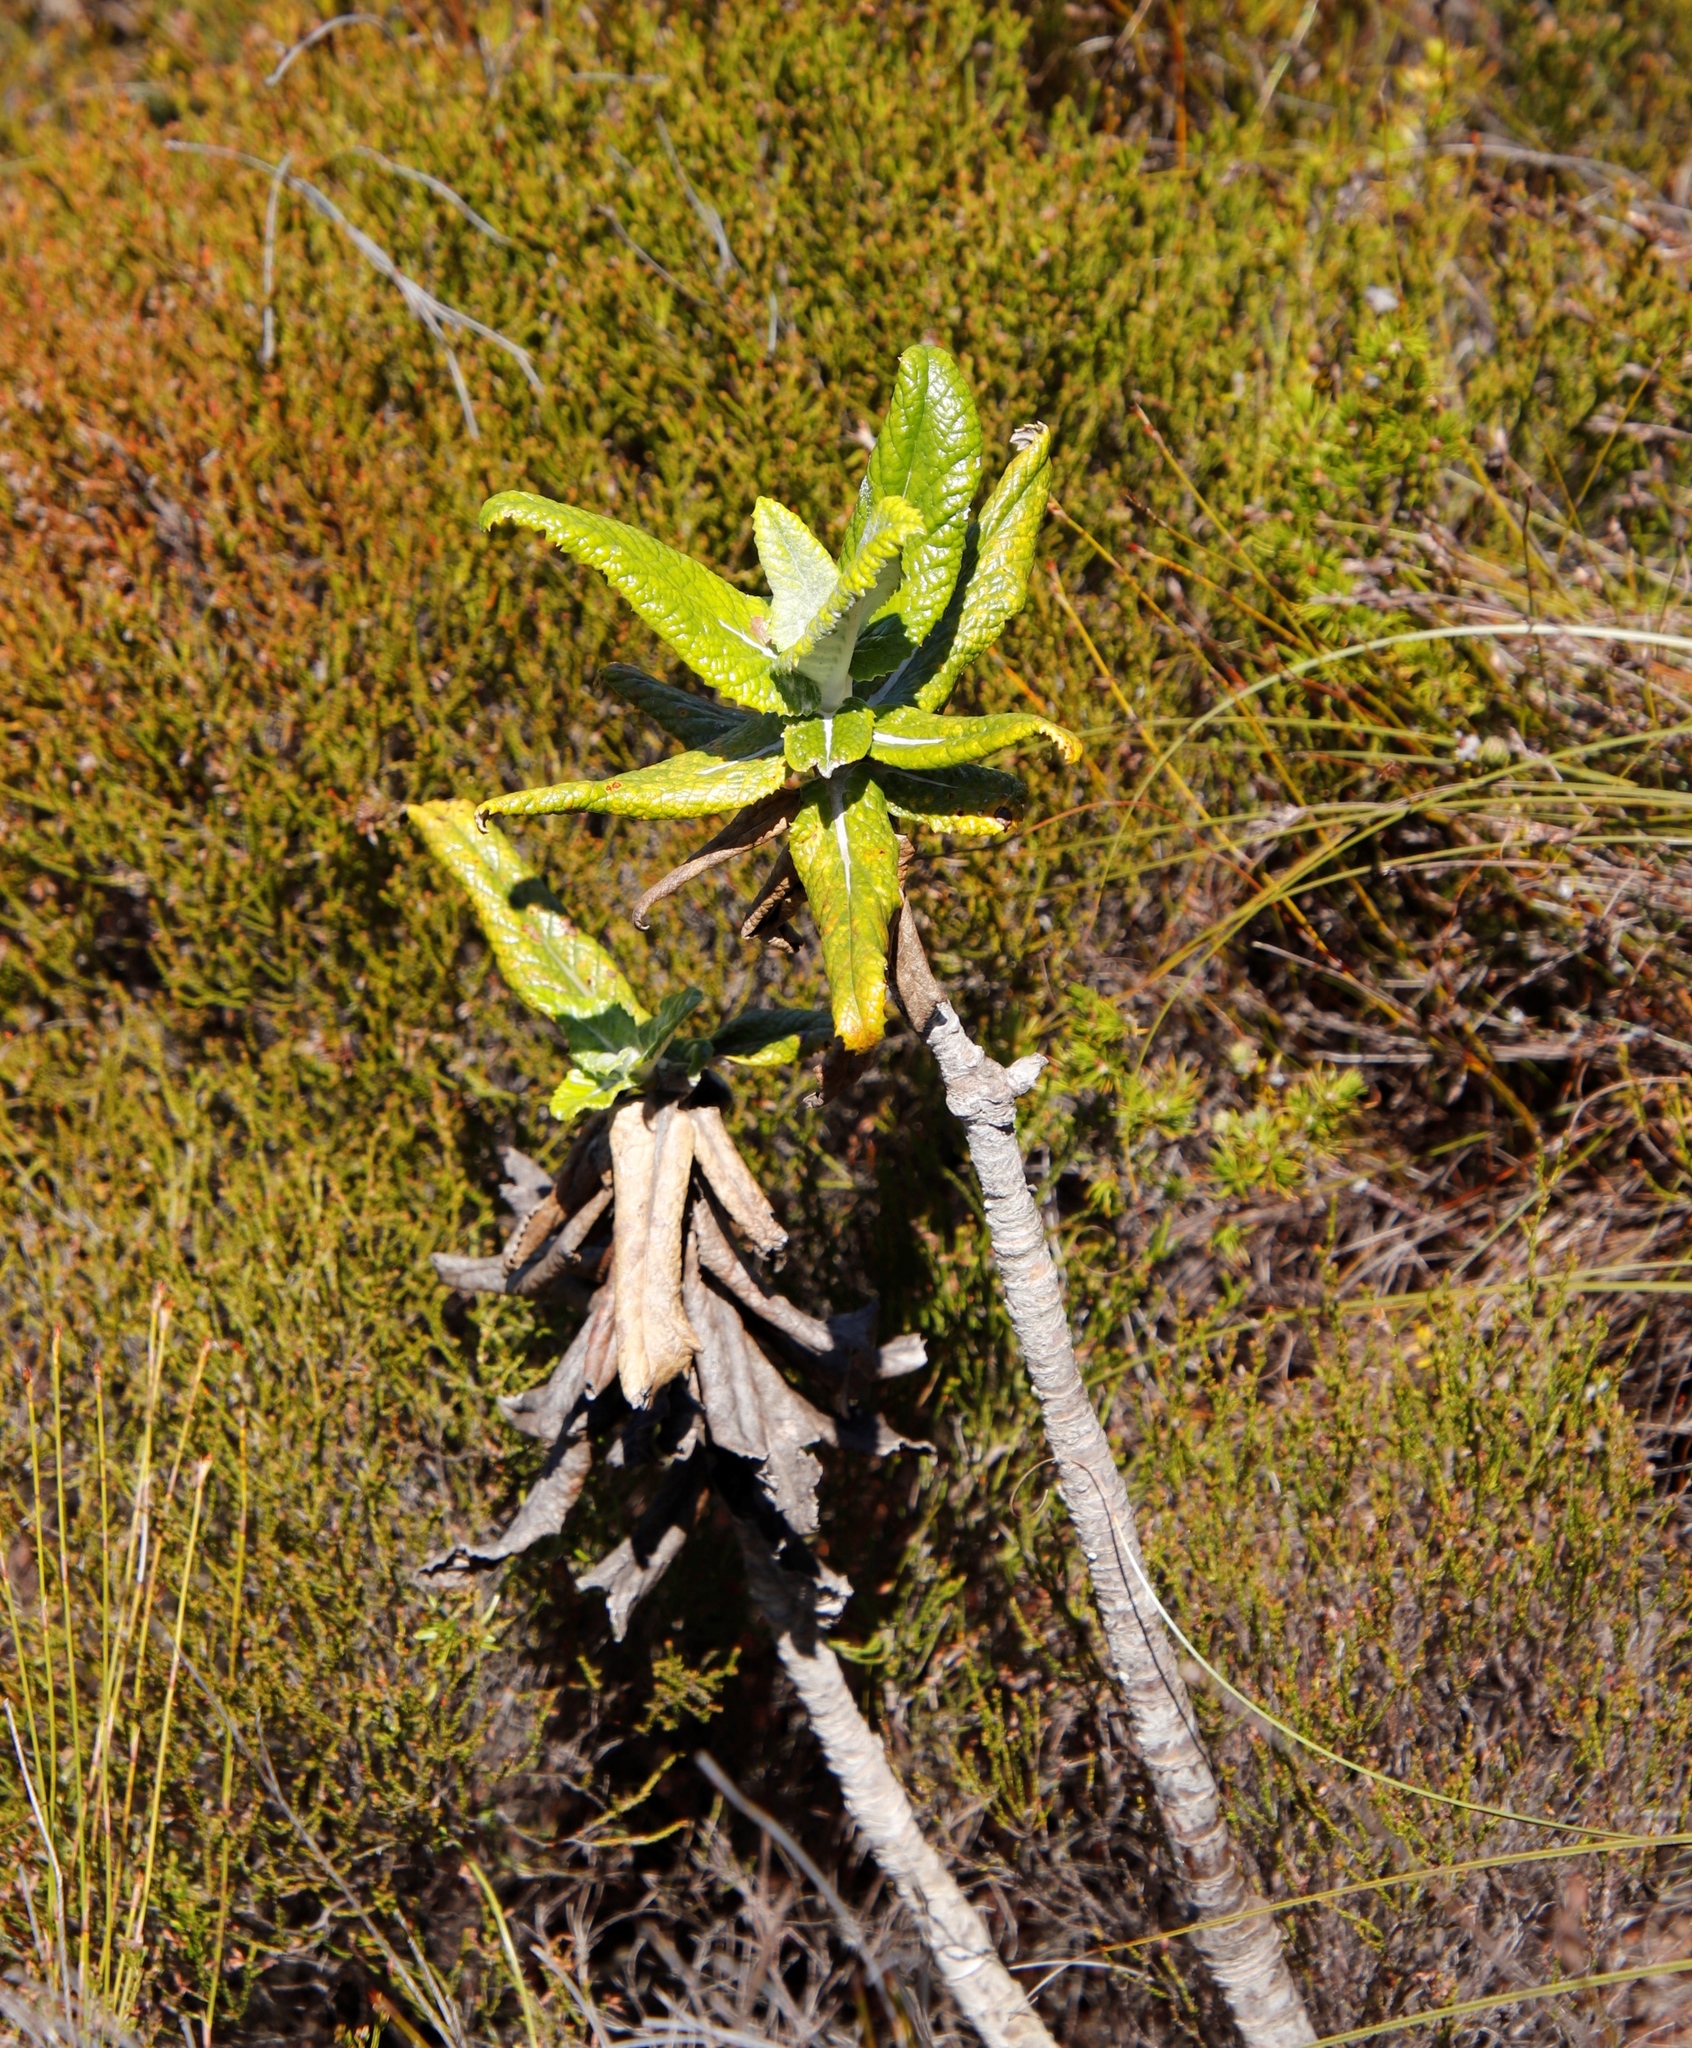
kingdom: Plantae
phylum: Tracheophyta
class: Magnoliopsida
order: Apiales
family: Apiaceae
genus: Hermas
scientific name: Hermas villosa
